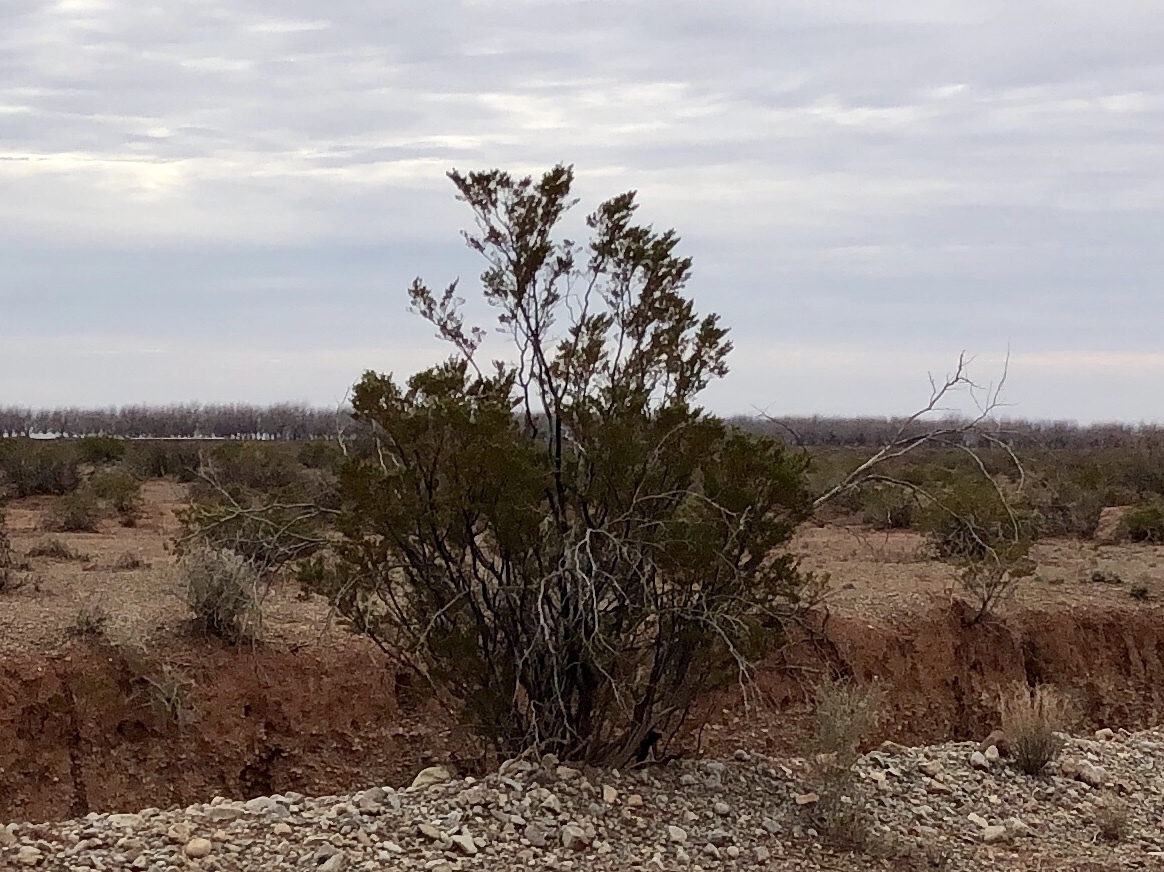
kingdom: Plantae
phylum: Tracheophyta
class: Magnoliopsida
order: Zygophyllales
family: Zygophyllaceae
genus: Larrea
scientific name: Larrea tridentata
